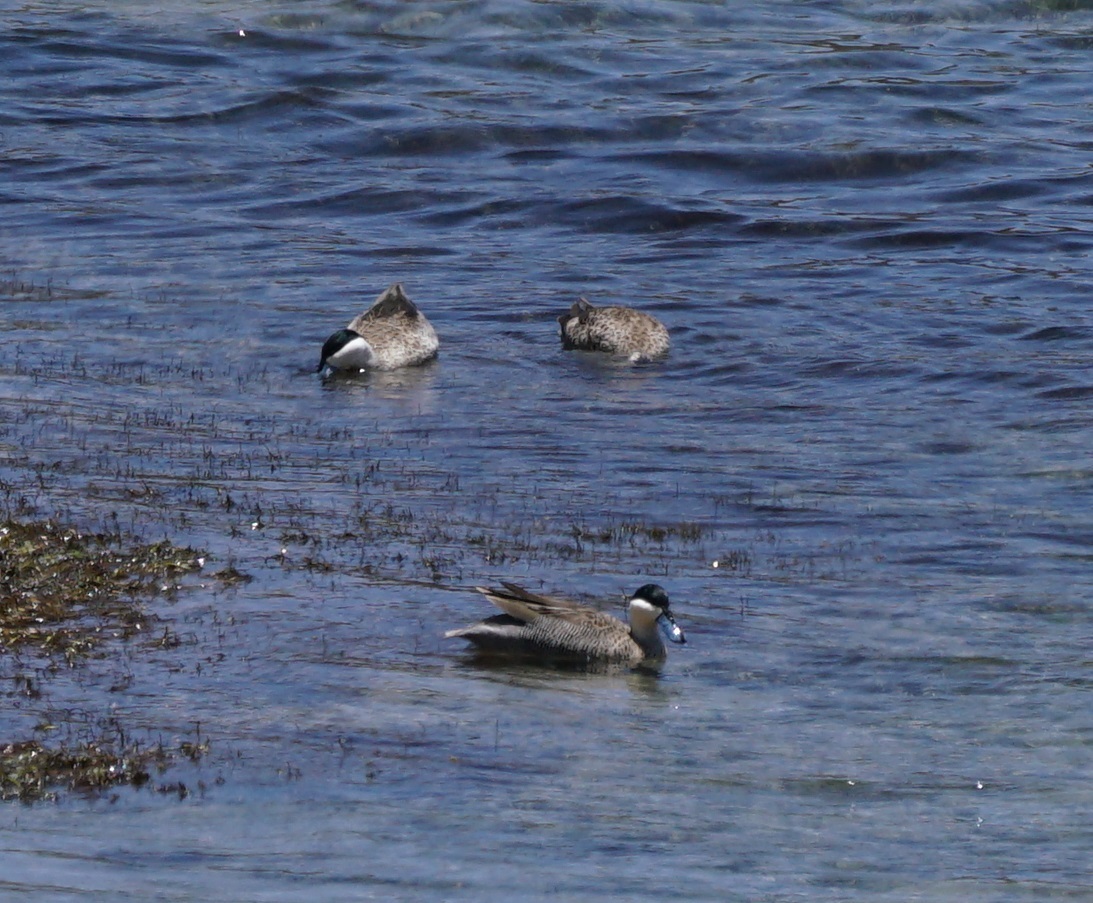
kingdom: Animalia
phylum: Chordata
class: Aves
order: Anseriformes
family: Anatidae
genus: Spatula
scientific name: Spatula puna
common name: Puna teal
